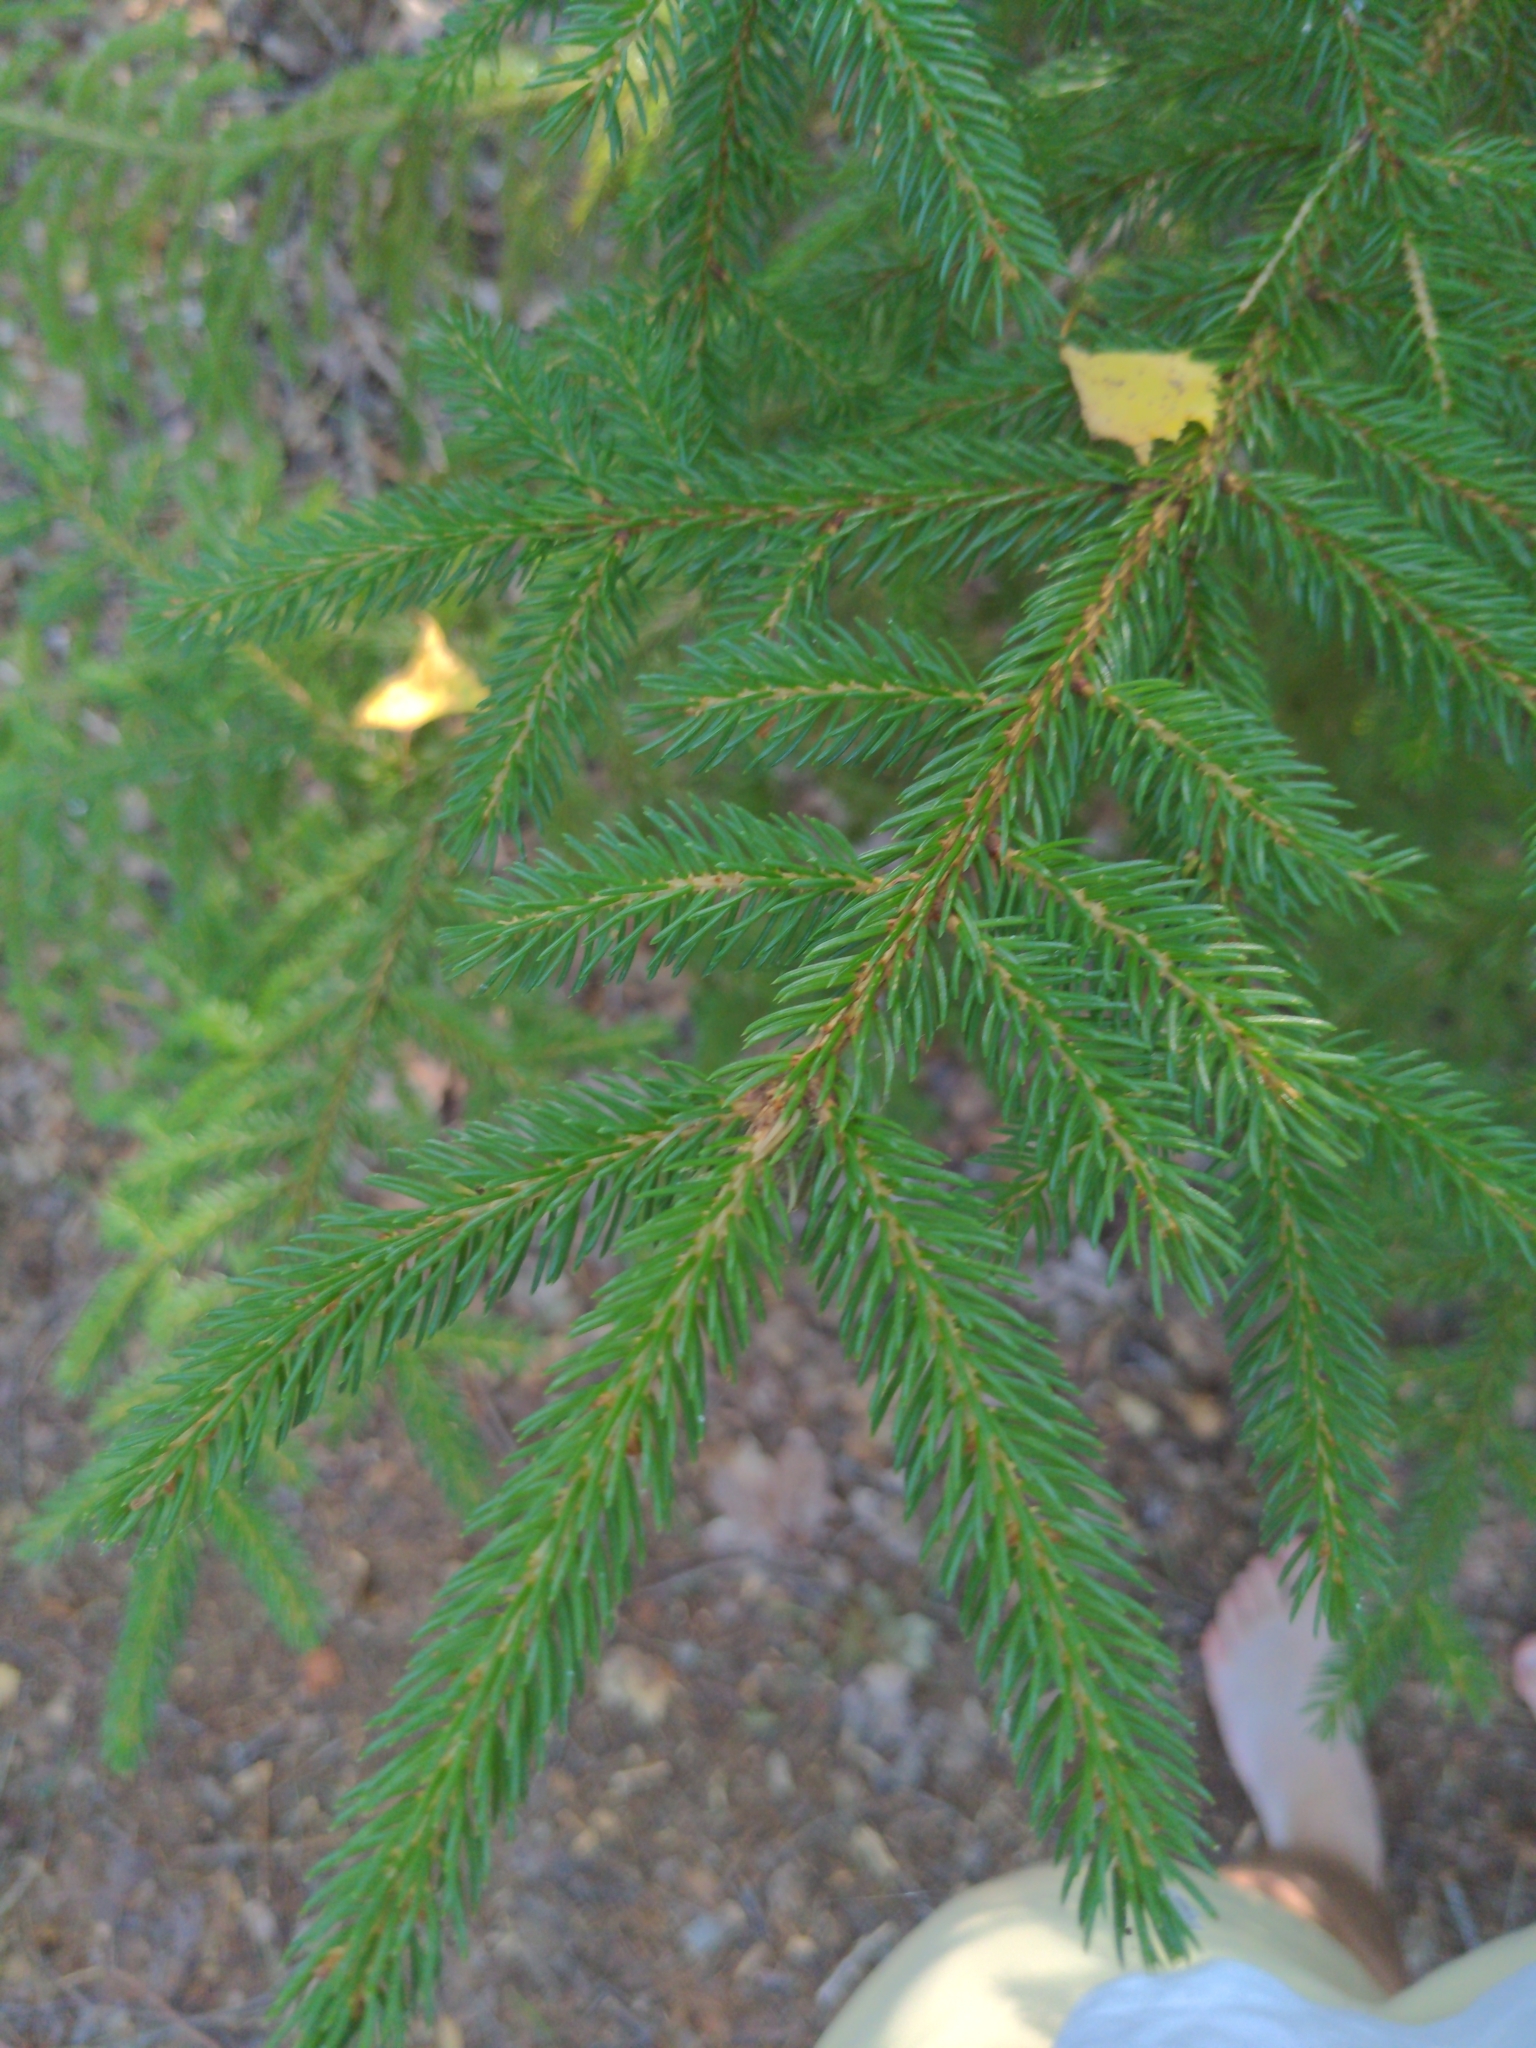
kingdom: Plantae
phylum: Tracheophyta
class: Pinopsida
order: Pinales
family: Pinaceae
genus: Picea
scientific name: Picea rubens
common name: Red spruce
